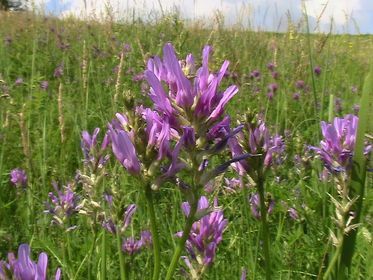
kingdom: Plantae
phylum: Tracheophyta
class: Magnoliopsida
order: Fabales
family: Fabaceae
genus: Astragalus
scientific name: Astragalus onobrychis
